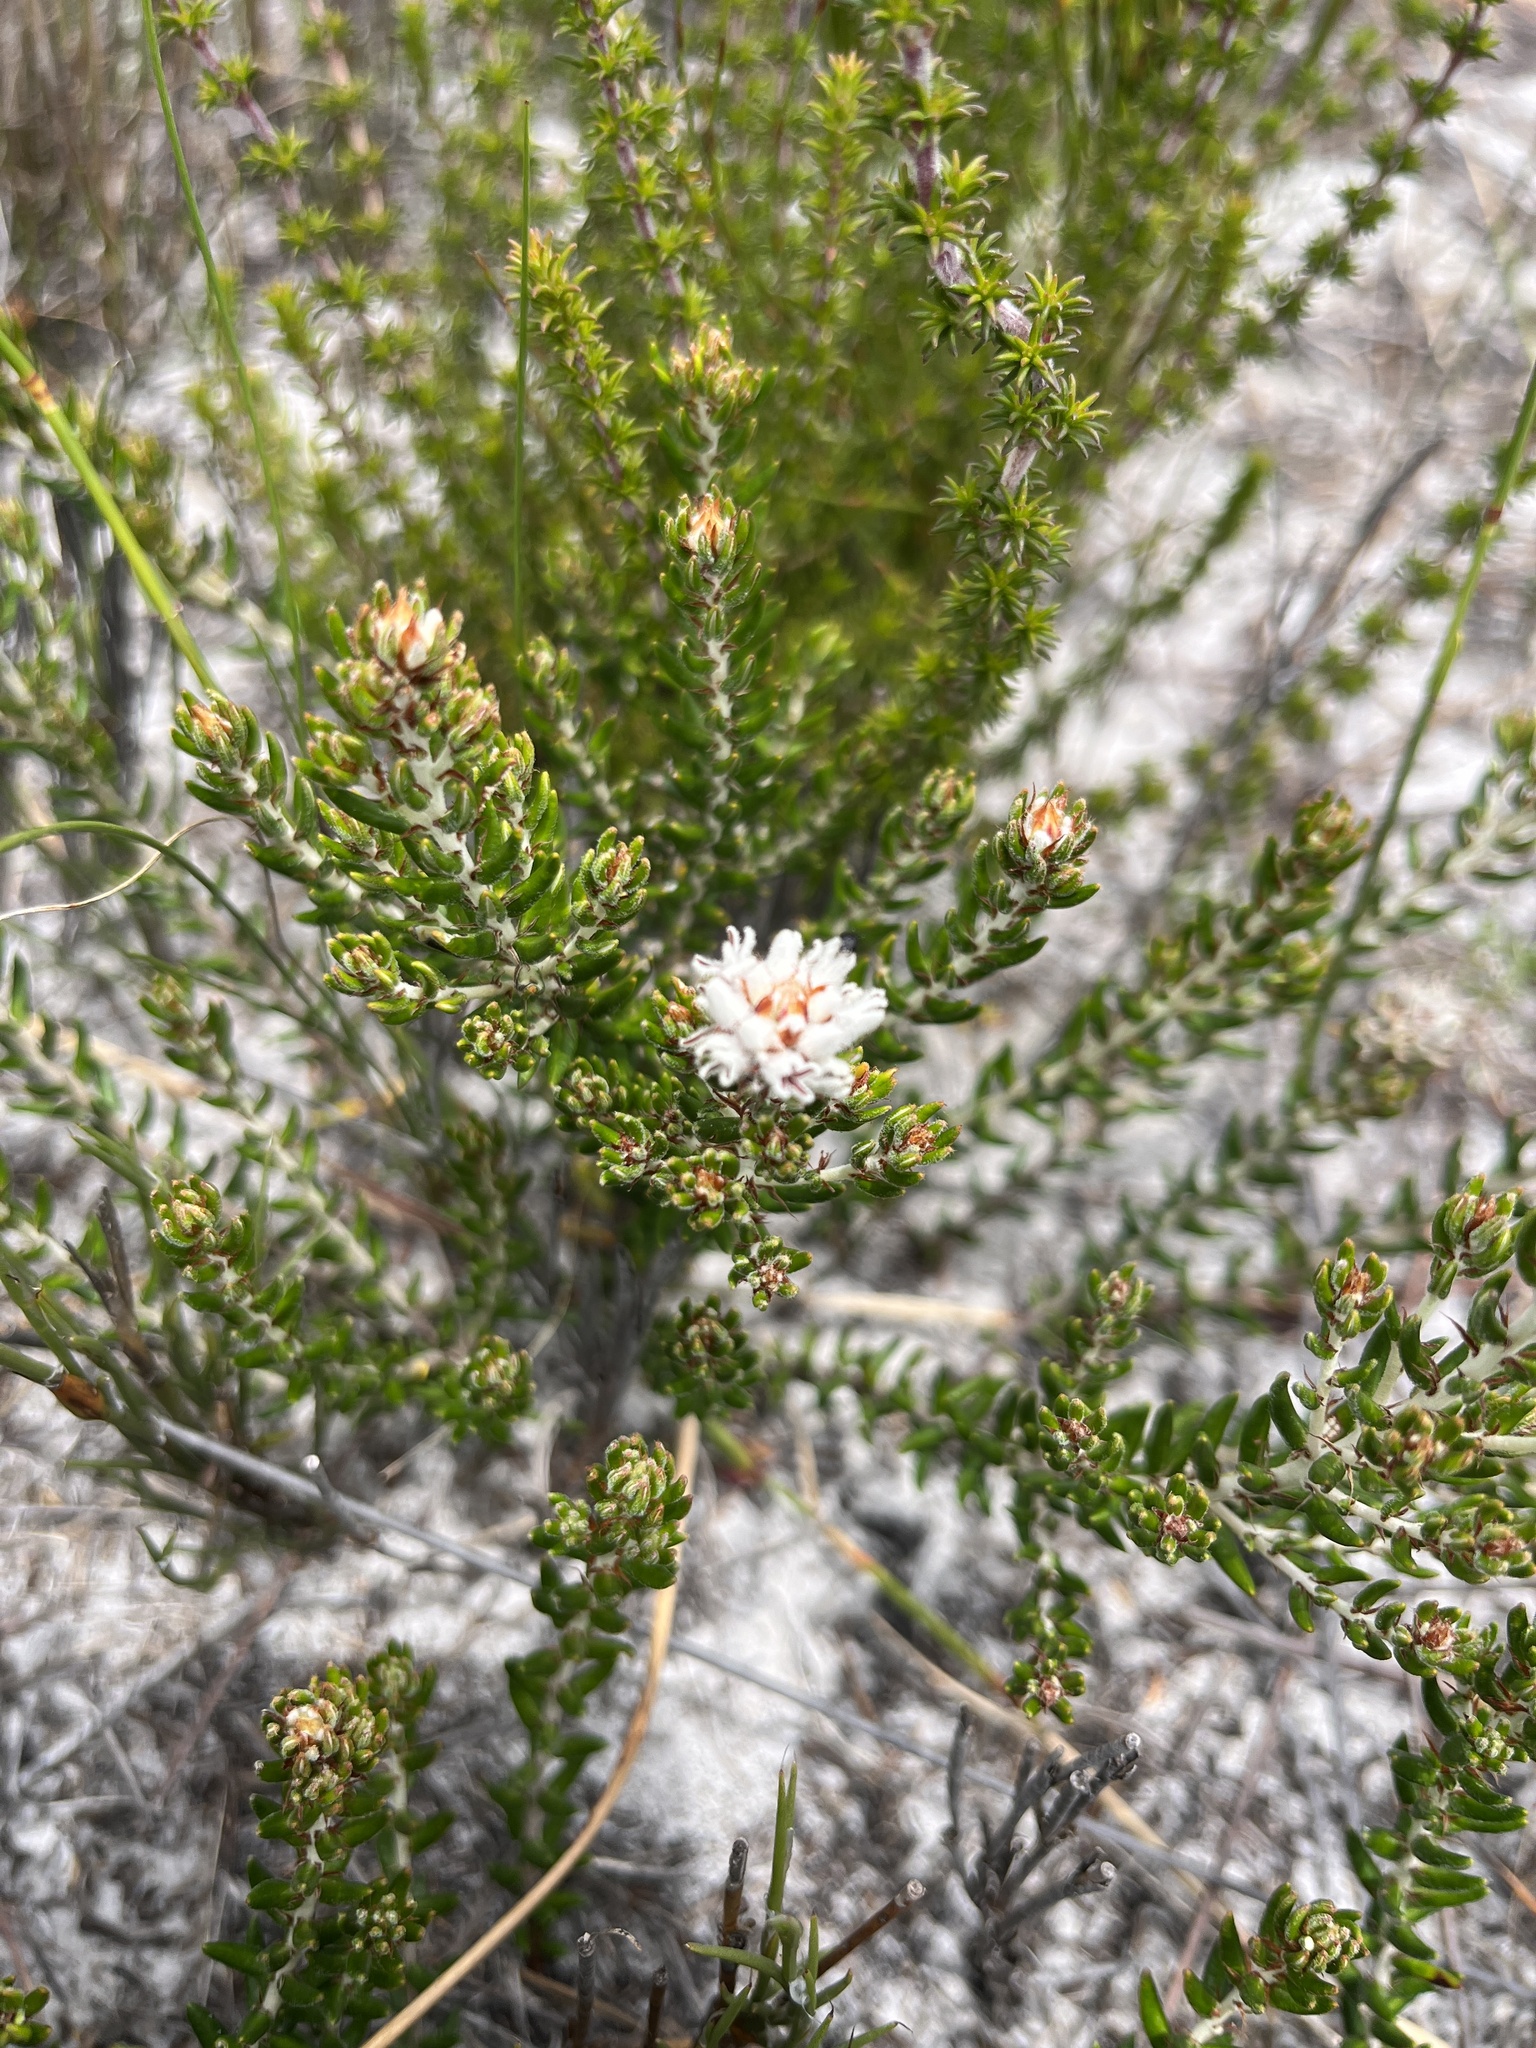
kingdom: Plantae
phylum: Tracheophyta
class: Magnoliopsida
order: Rosales
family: Rhamnaceae
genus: Trichocephalus
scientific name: Trichocephalus stipularis
